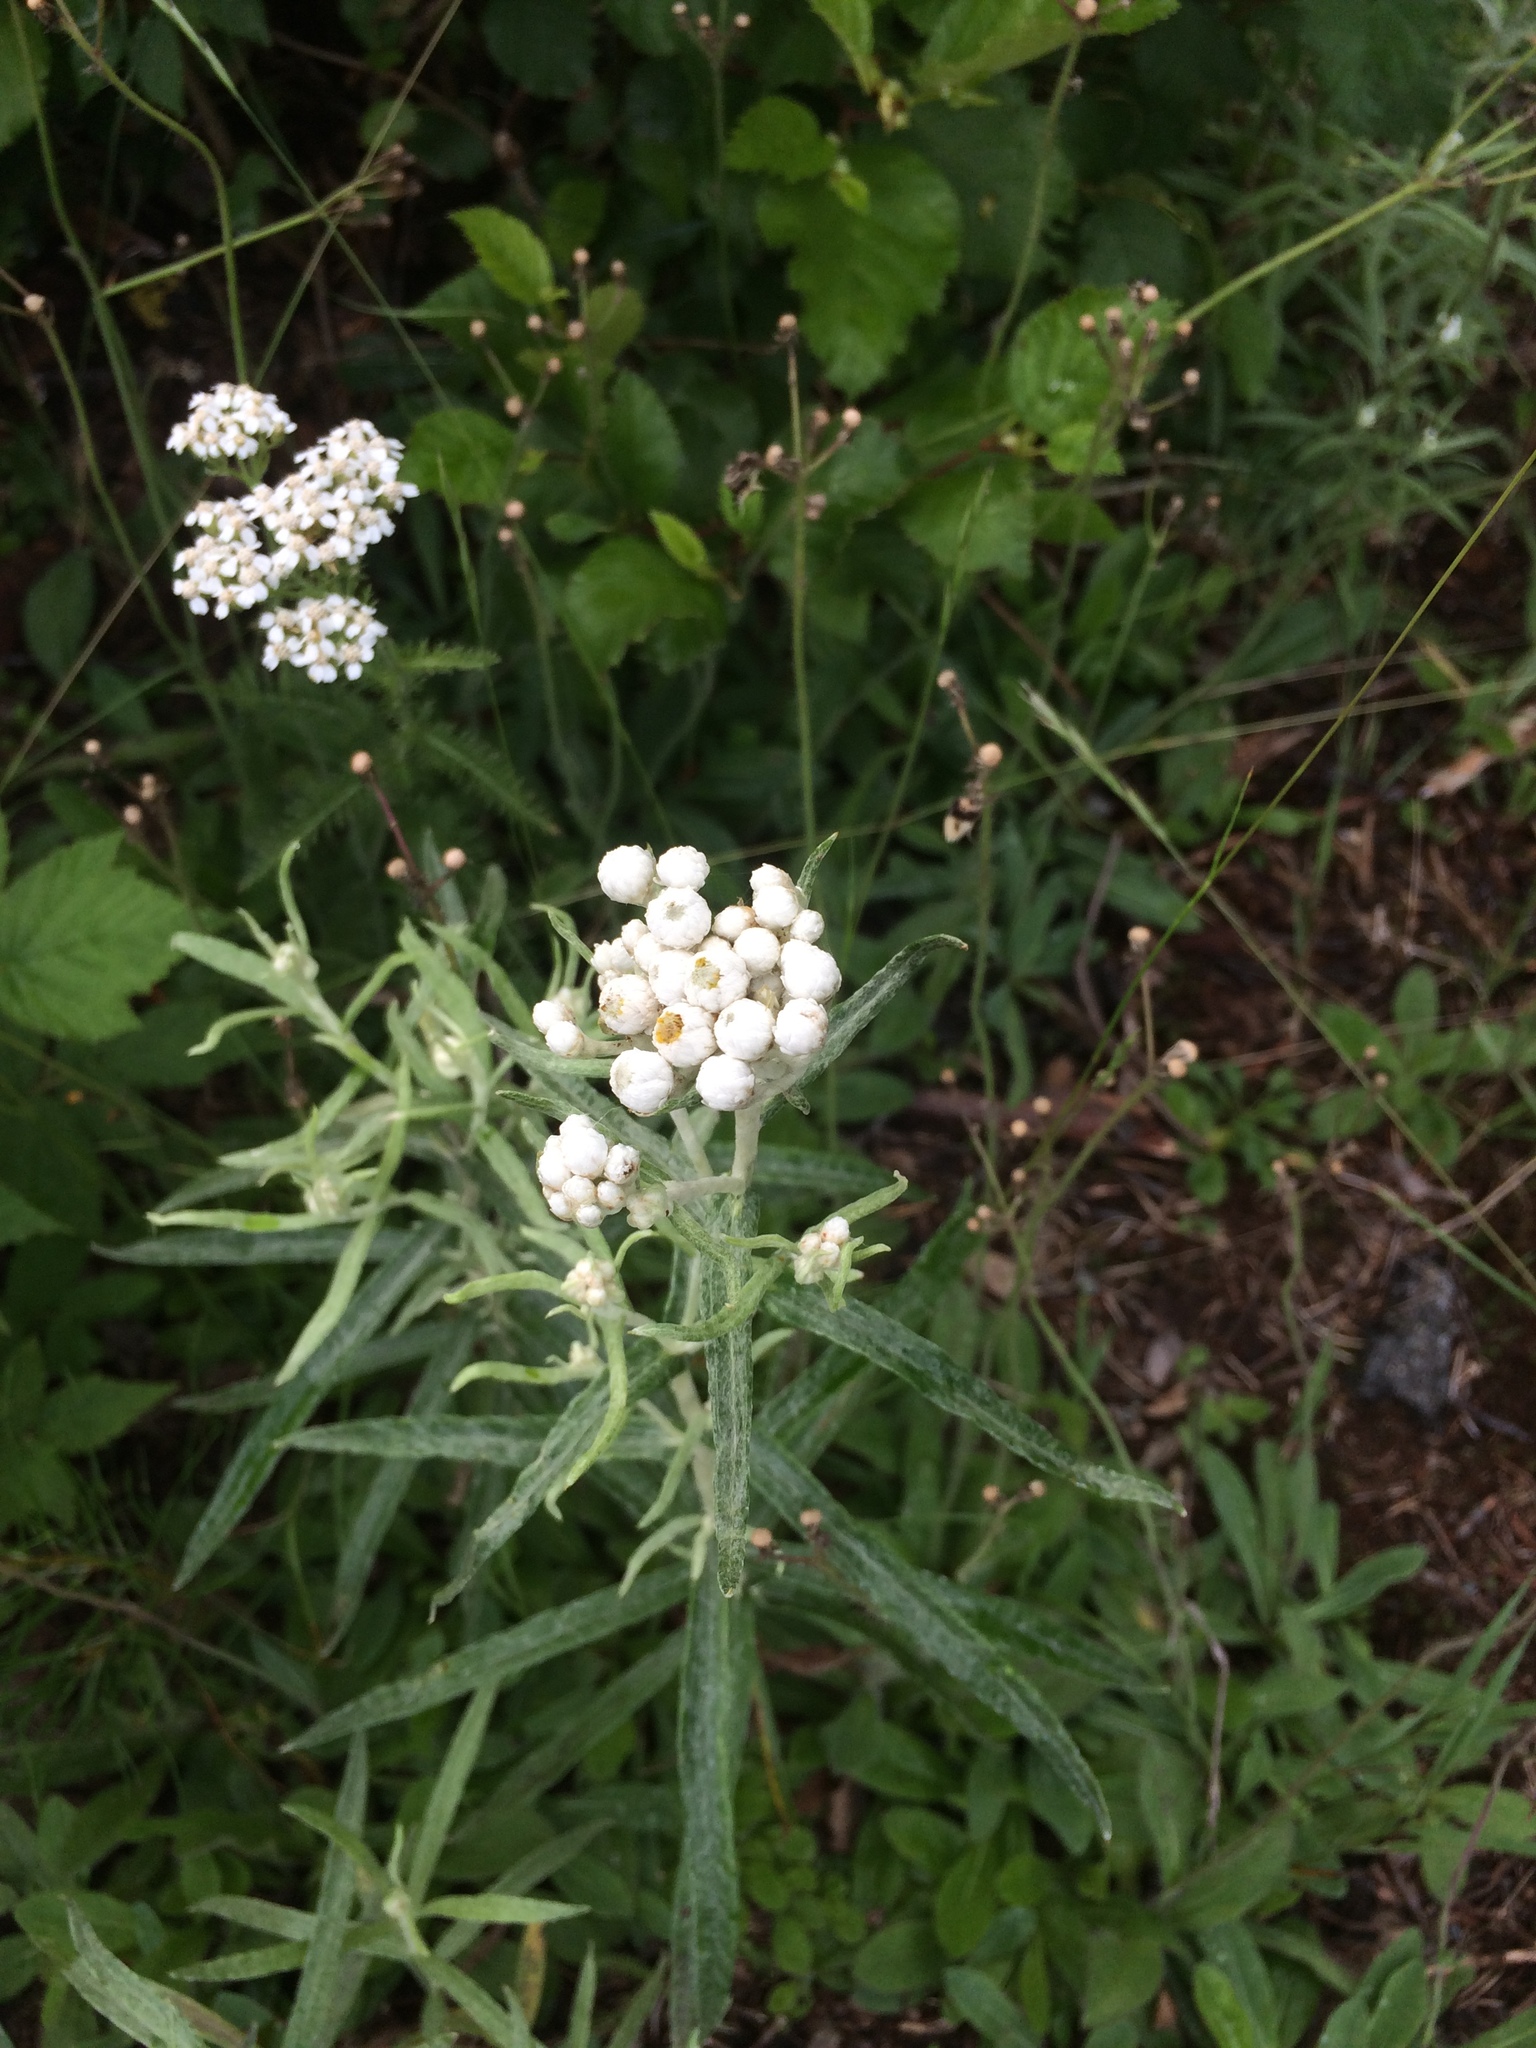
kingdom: Plantae
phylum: Tracheophyta
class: Magnoliopsida
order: Asterales
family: Asteraceae
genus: Anaphalis
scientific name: Anaphalis margaritacea
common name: Pearly everlasting
